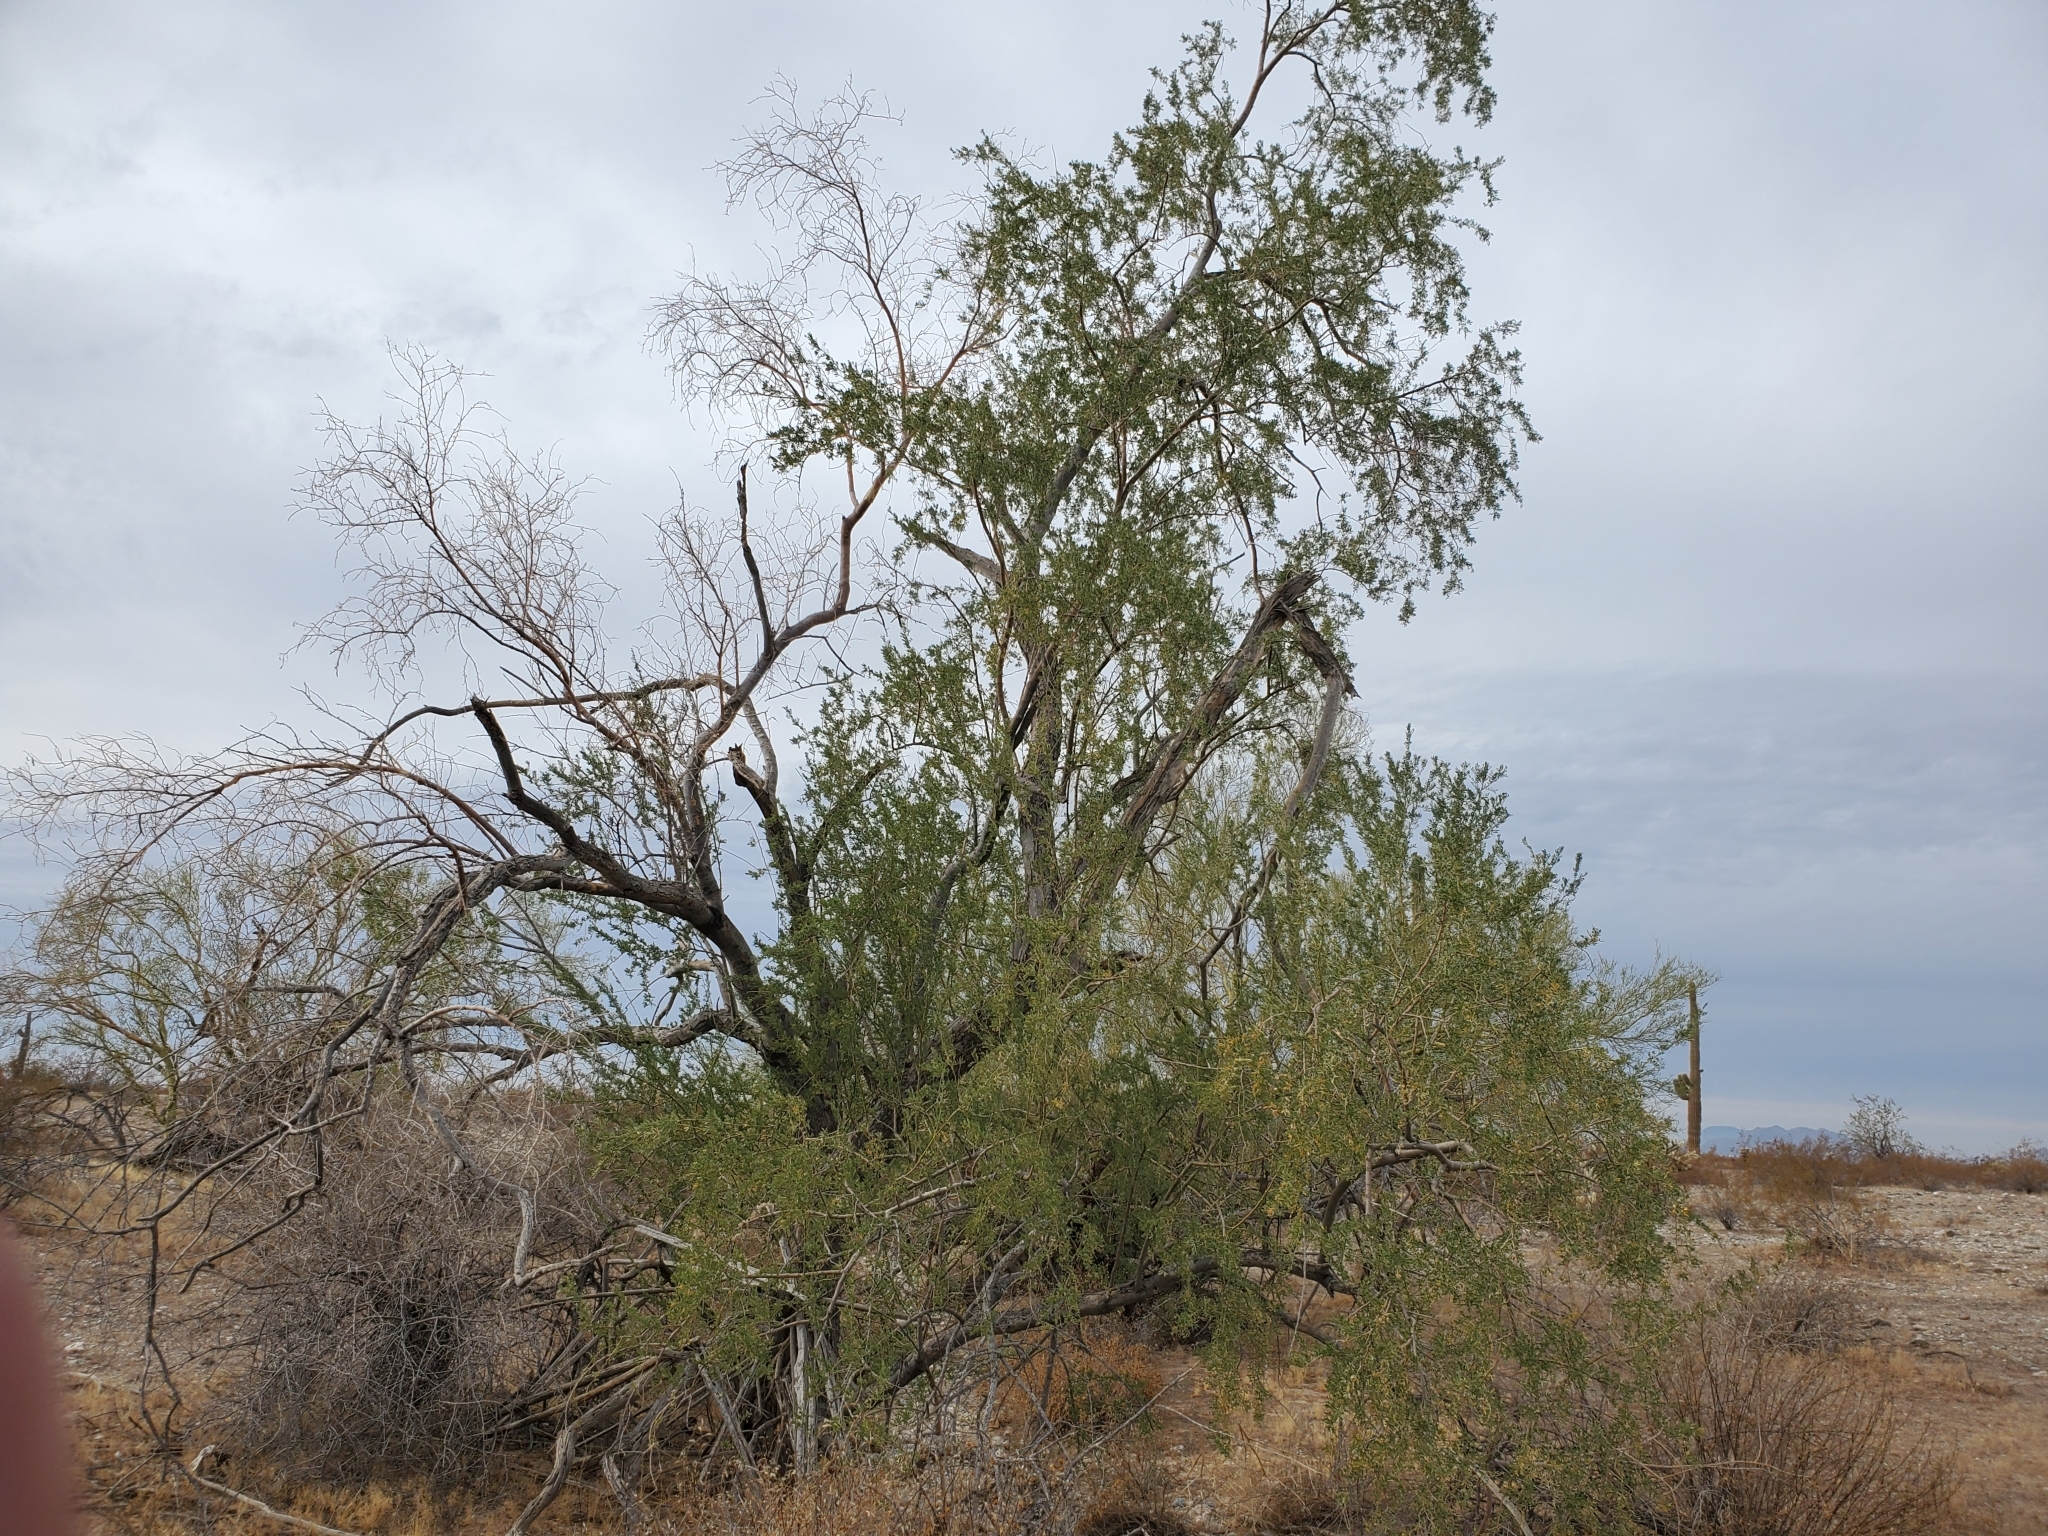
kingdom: Plantae
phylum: Tracheophyta
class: Magnoliopsida
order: Fabales
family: Fabaceae
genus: Olneya
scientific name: Olneya tesota
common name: Desert ironwood
